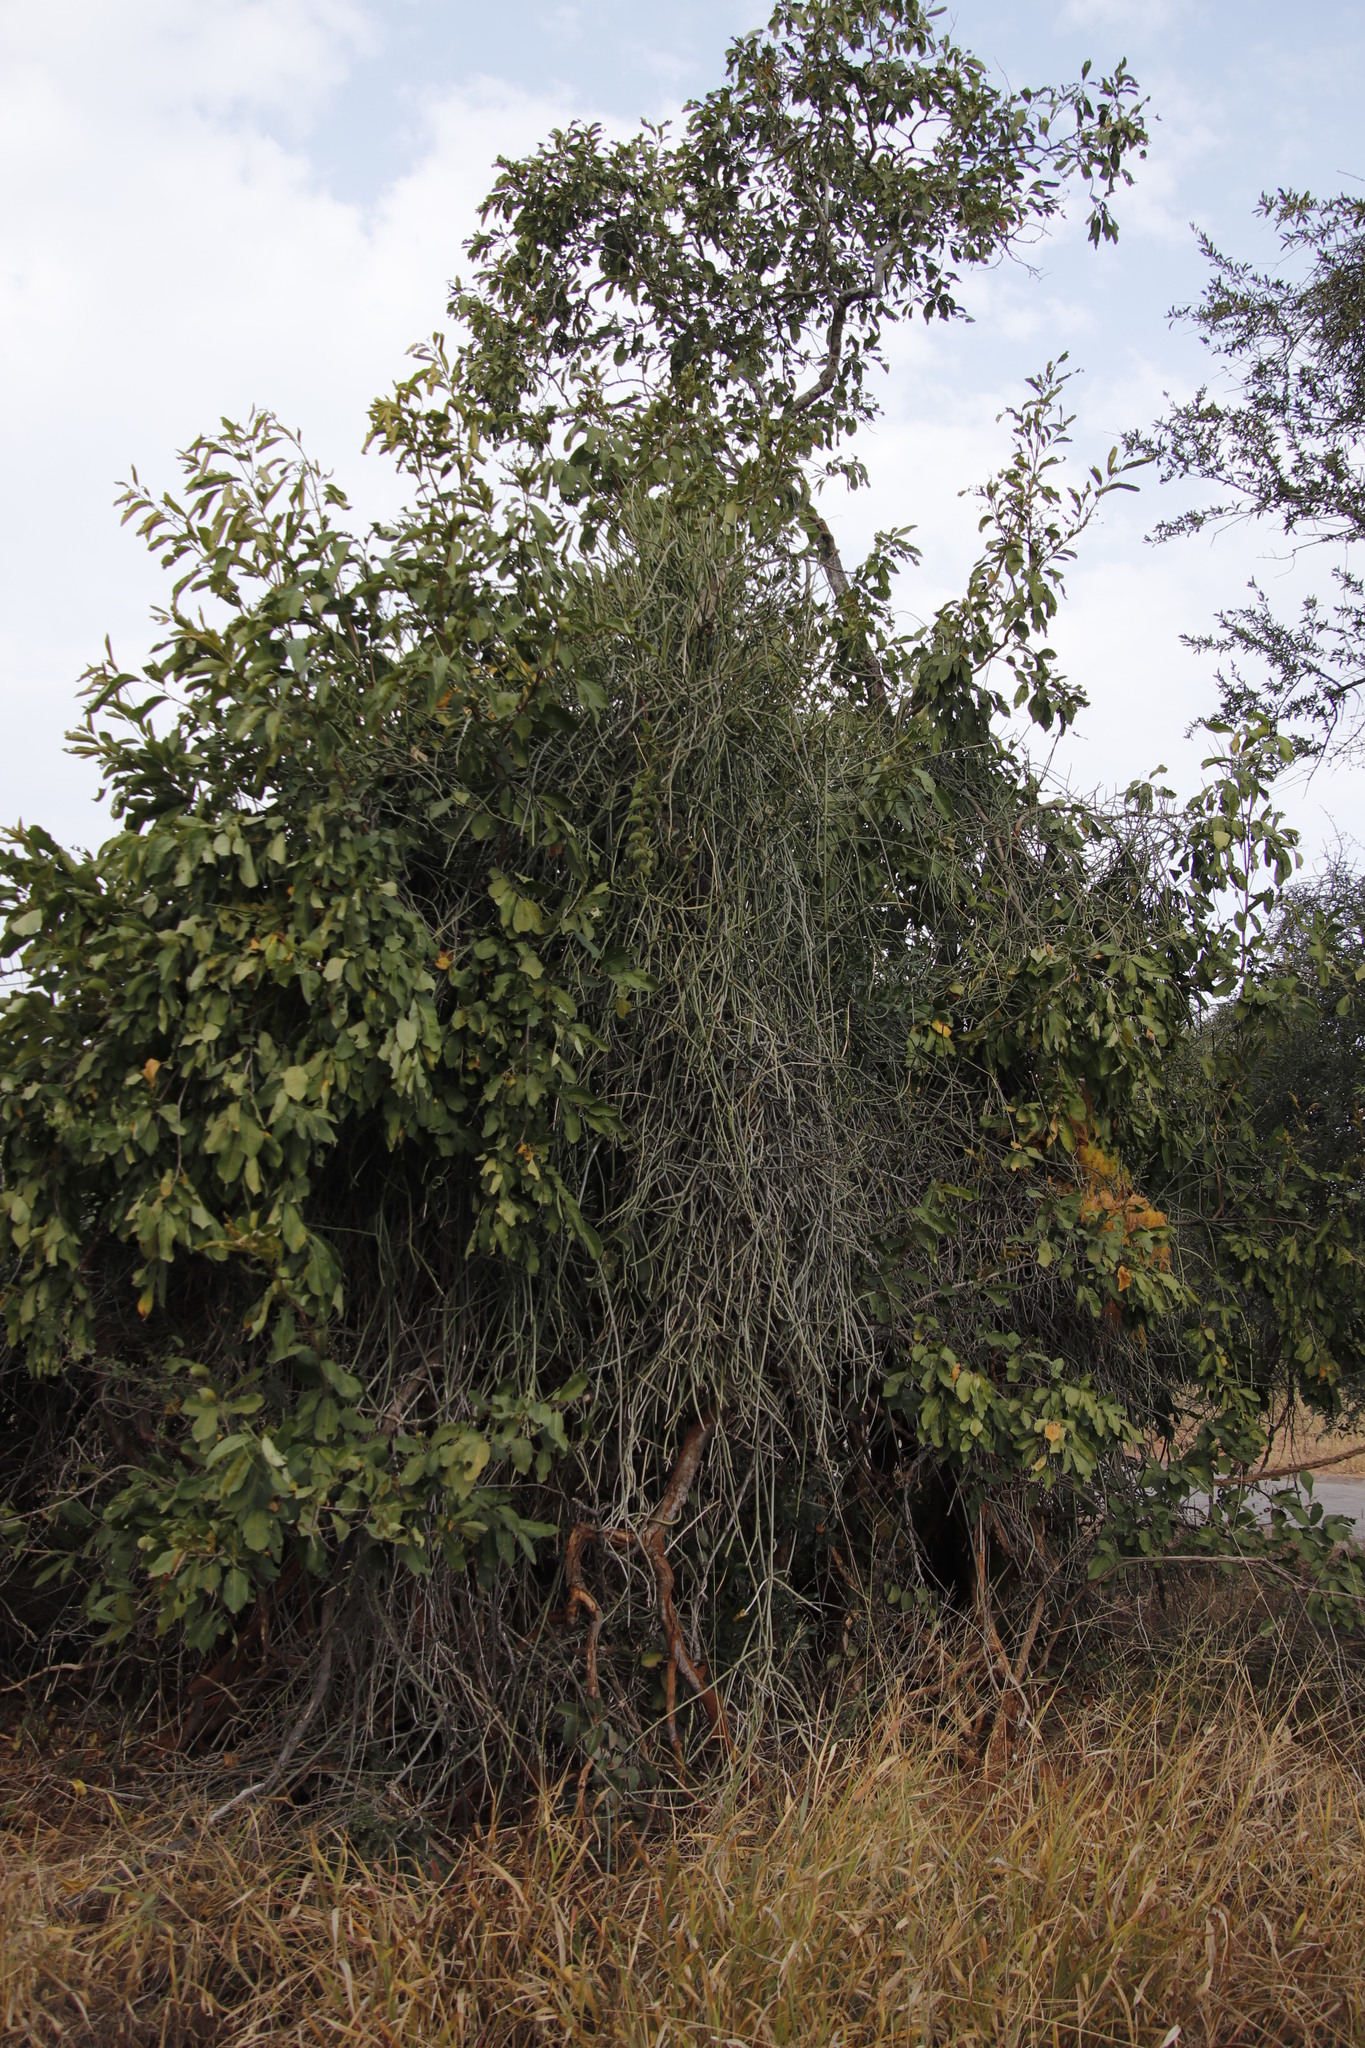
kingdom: Plantae
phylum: Tracheophyta
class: Magnoliopsida
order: Gentianales
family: Apocynaceae
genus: Cynanchum
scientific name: Cynanchum viminale
